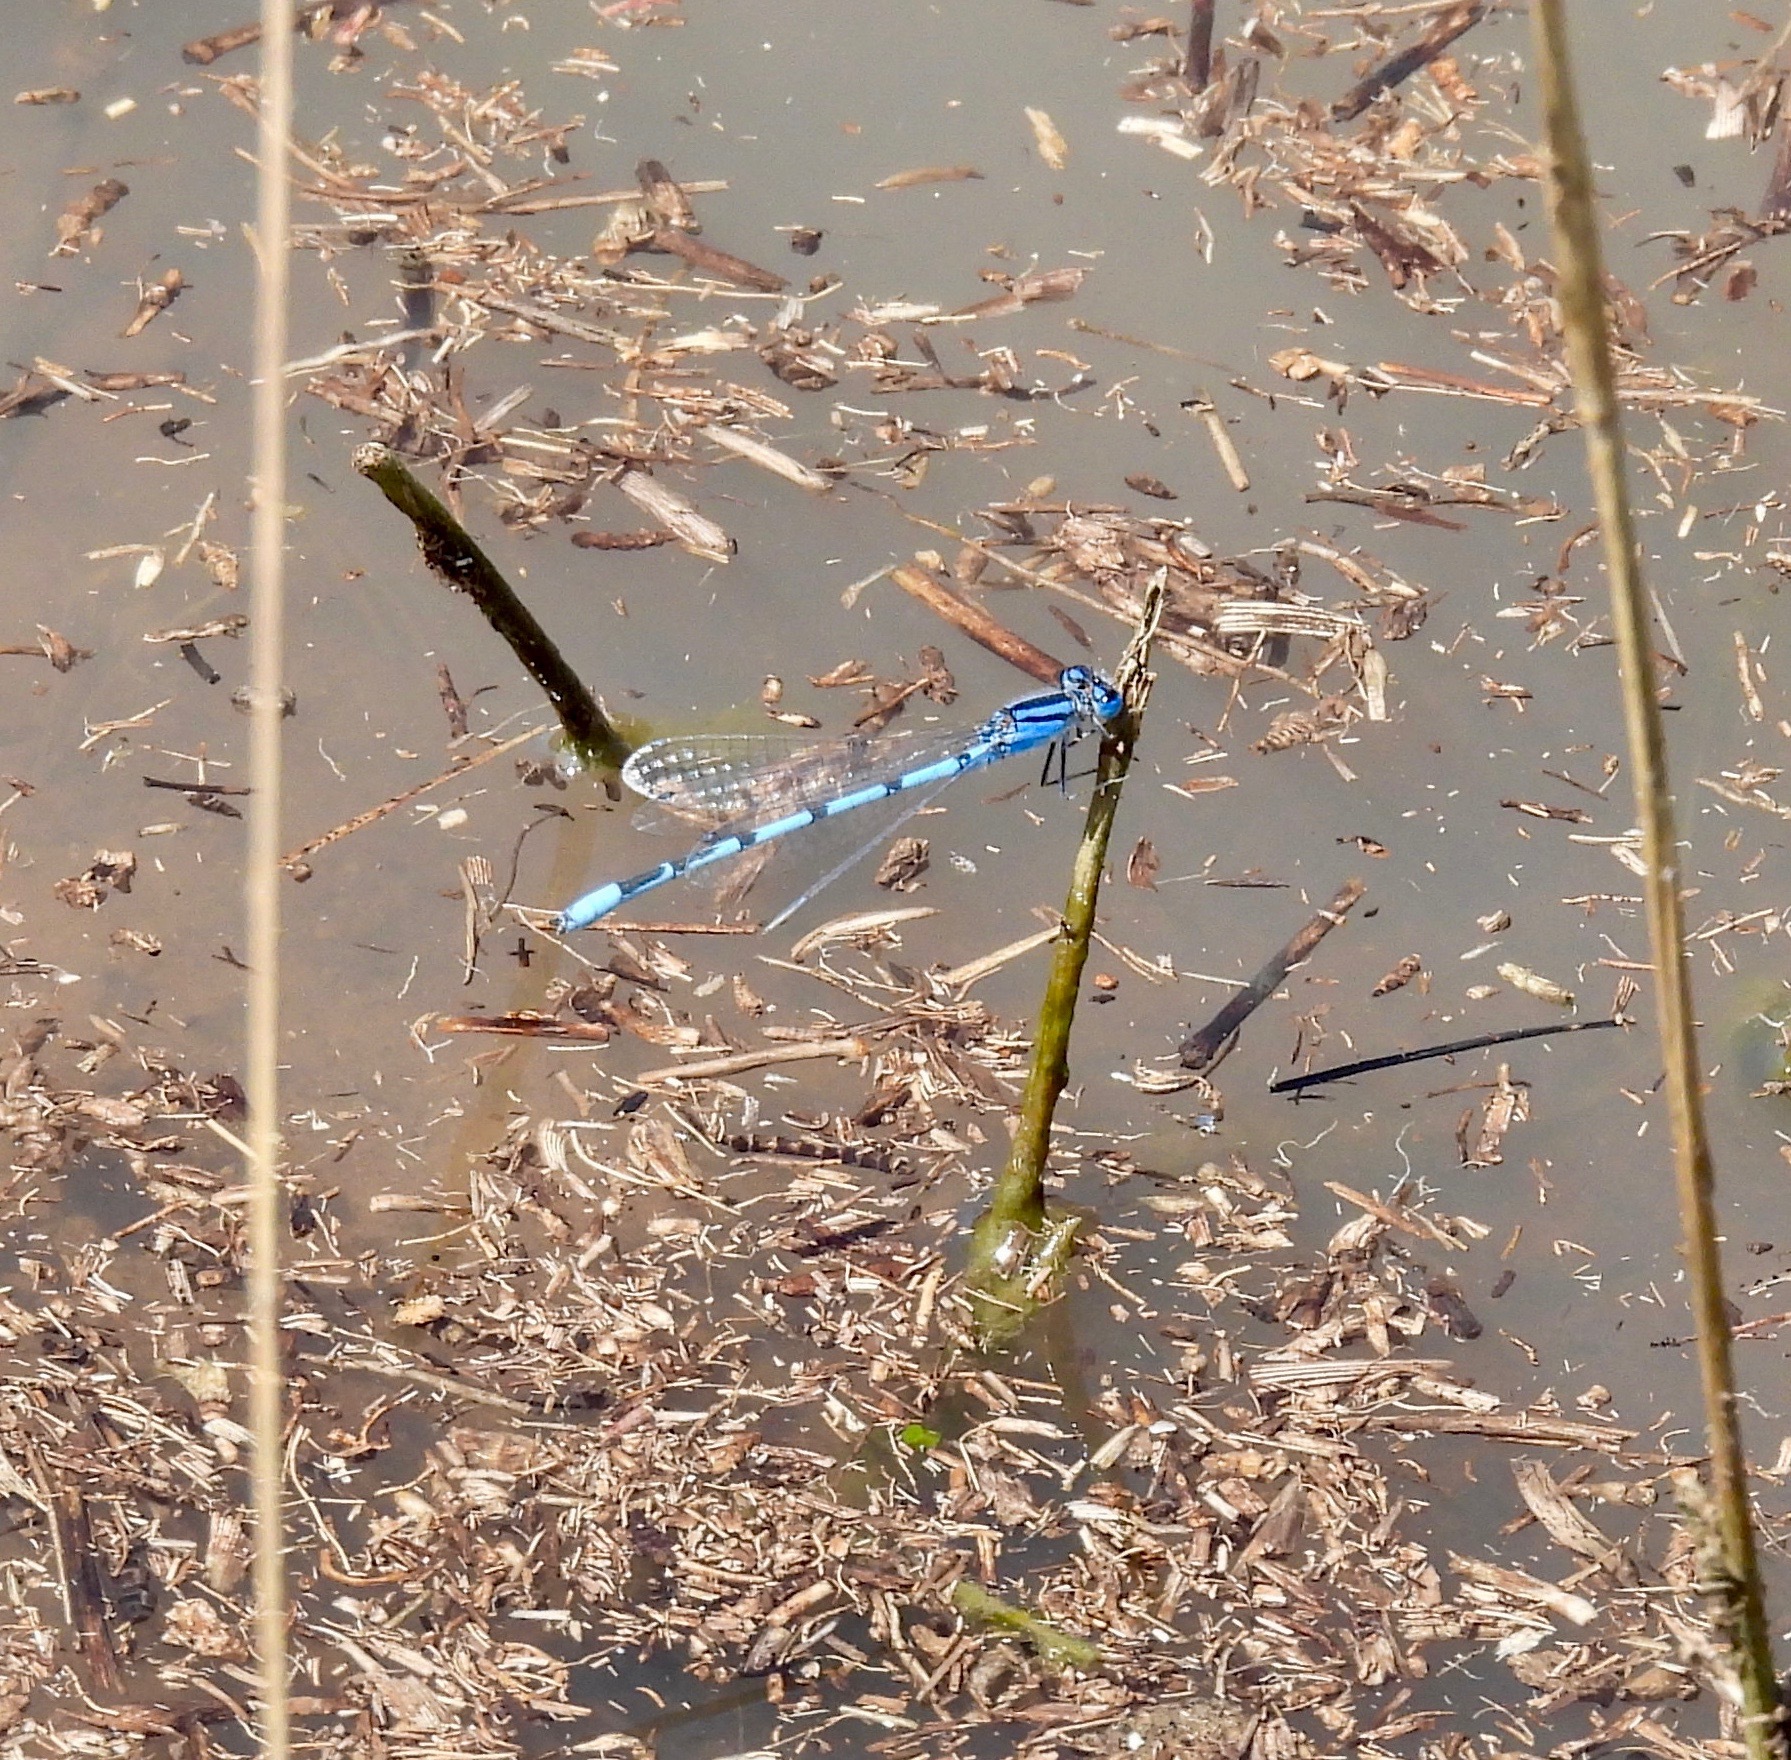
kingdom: Animalia
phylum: Arthropoda
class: Insecta
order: Odonata
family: Coenagrionidae
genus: Enallagma
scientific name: Enallagma civile
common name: Damselfly
